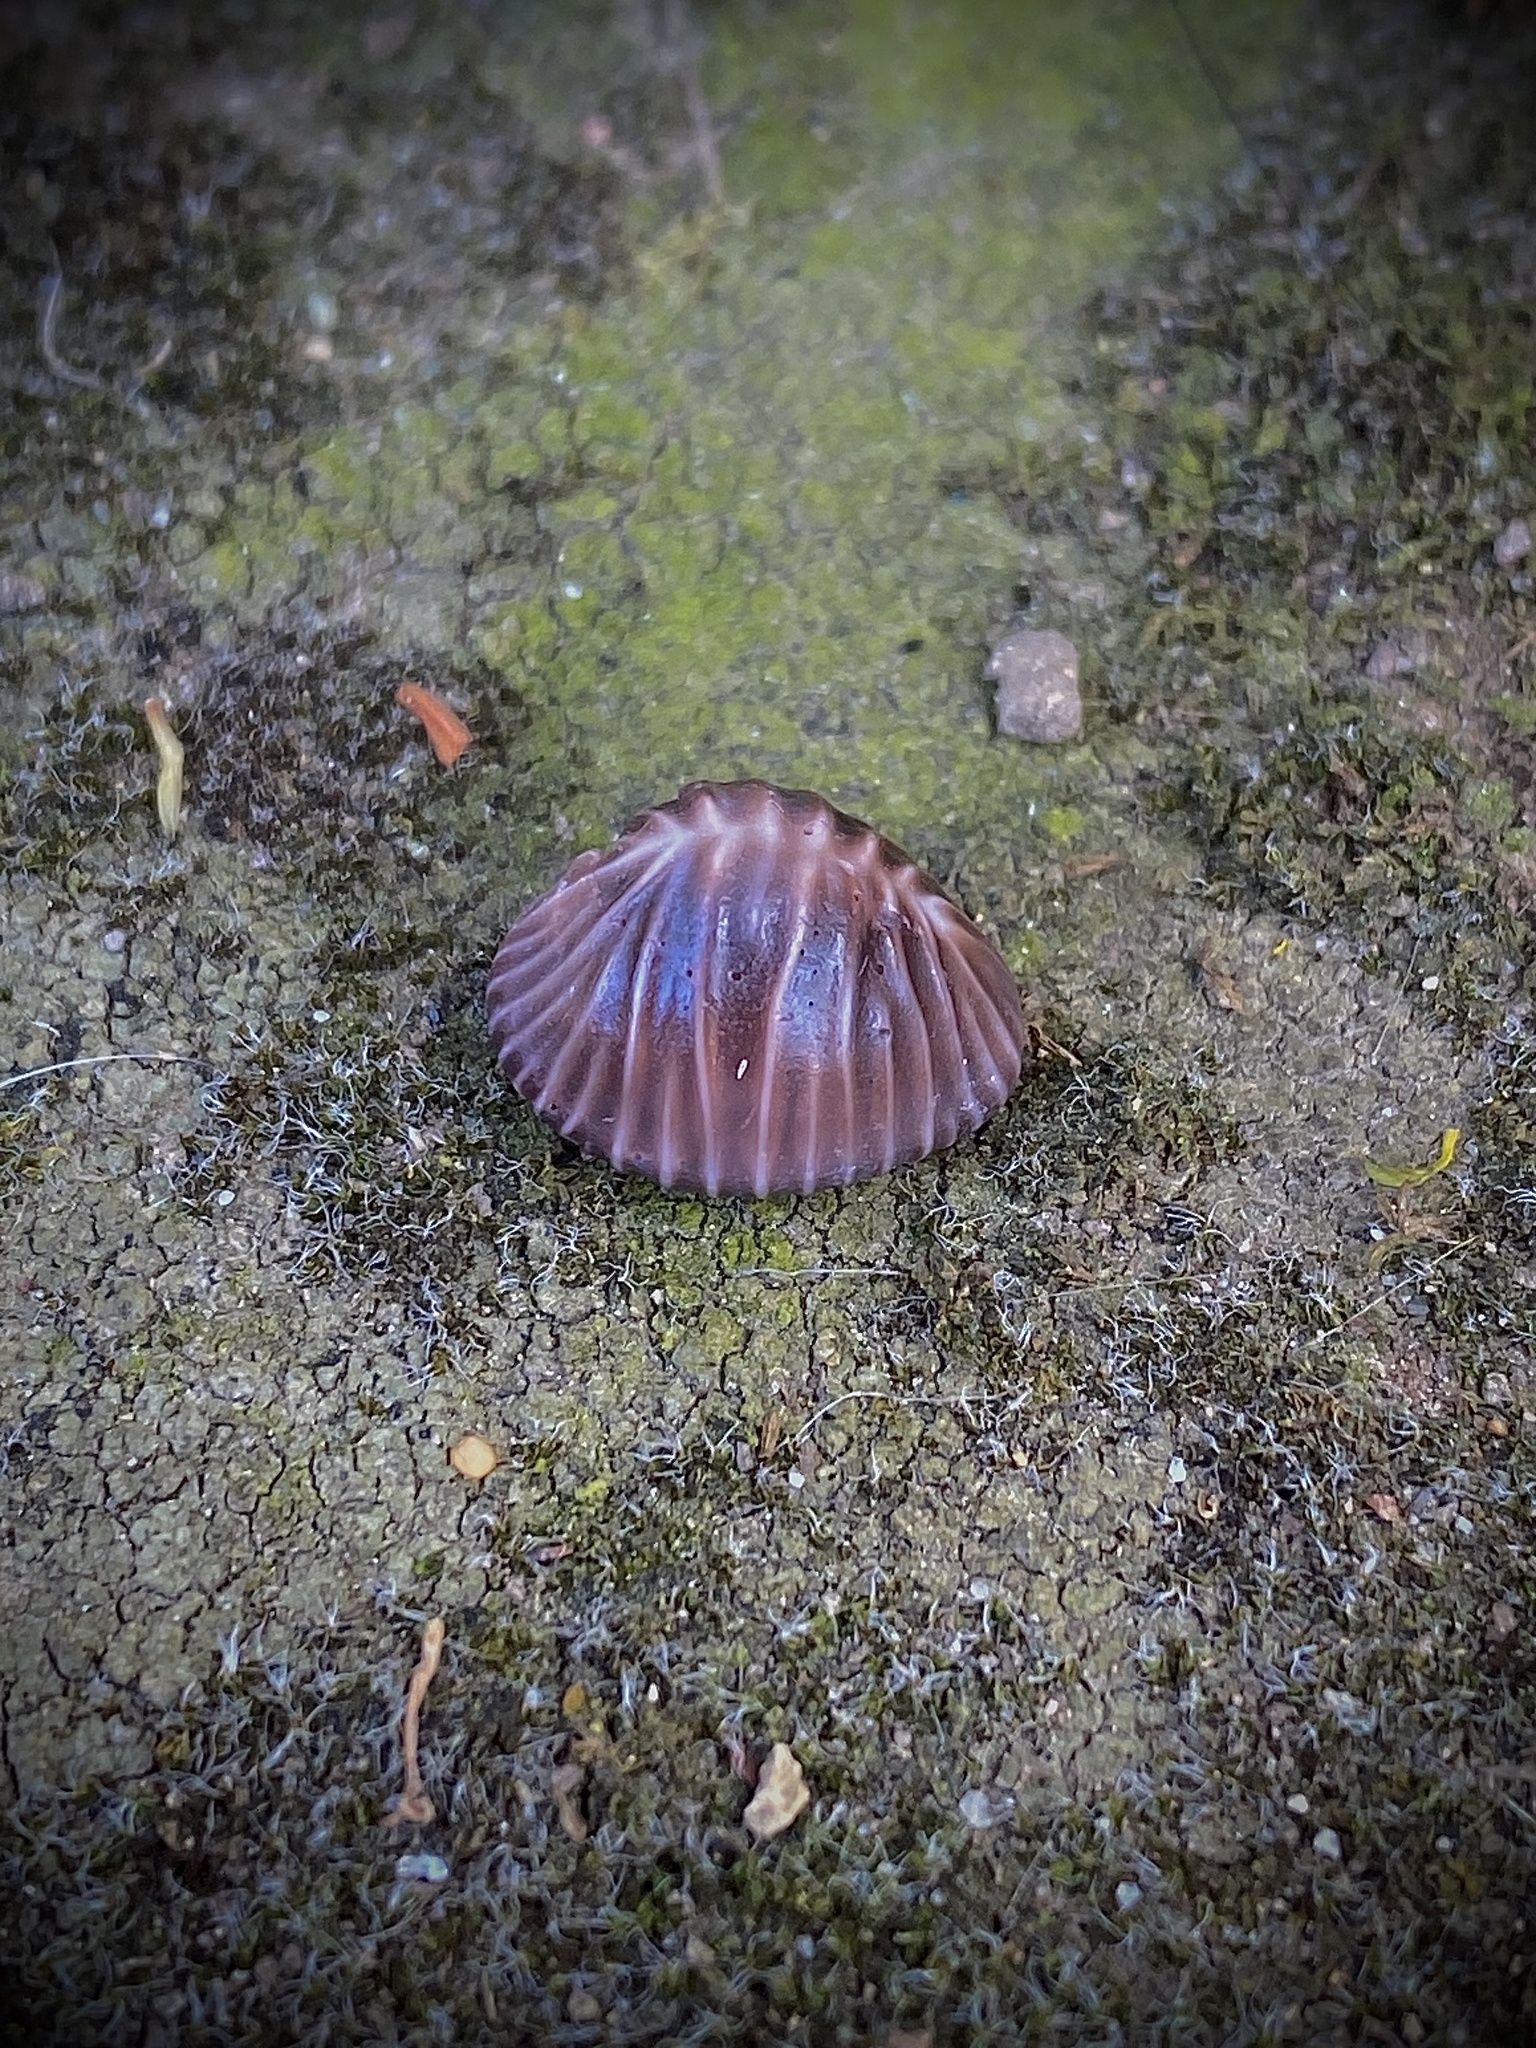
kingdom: Animalia
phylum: Mollusca
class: Gastropoda
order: Littorinimorpha
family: Triviidae
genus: Pseudopusula
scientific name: Pseudopusula californiana
